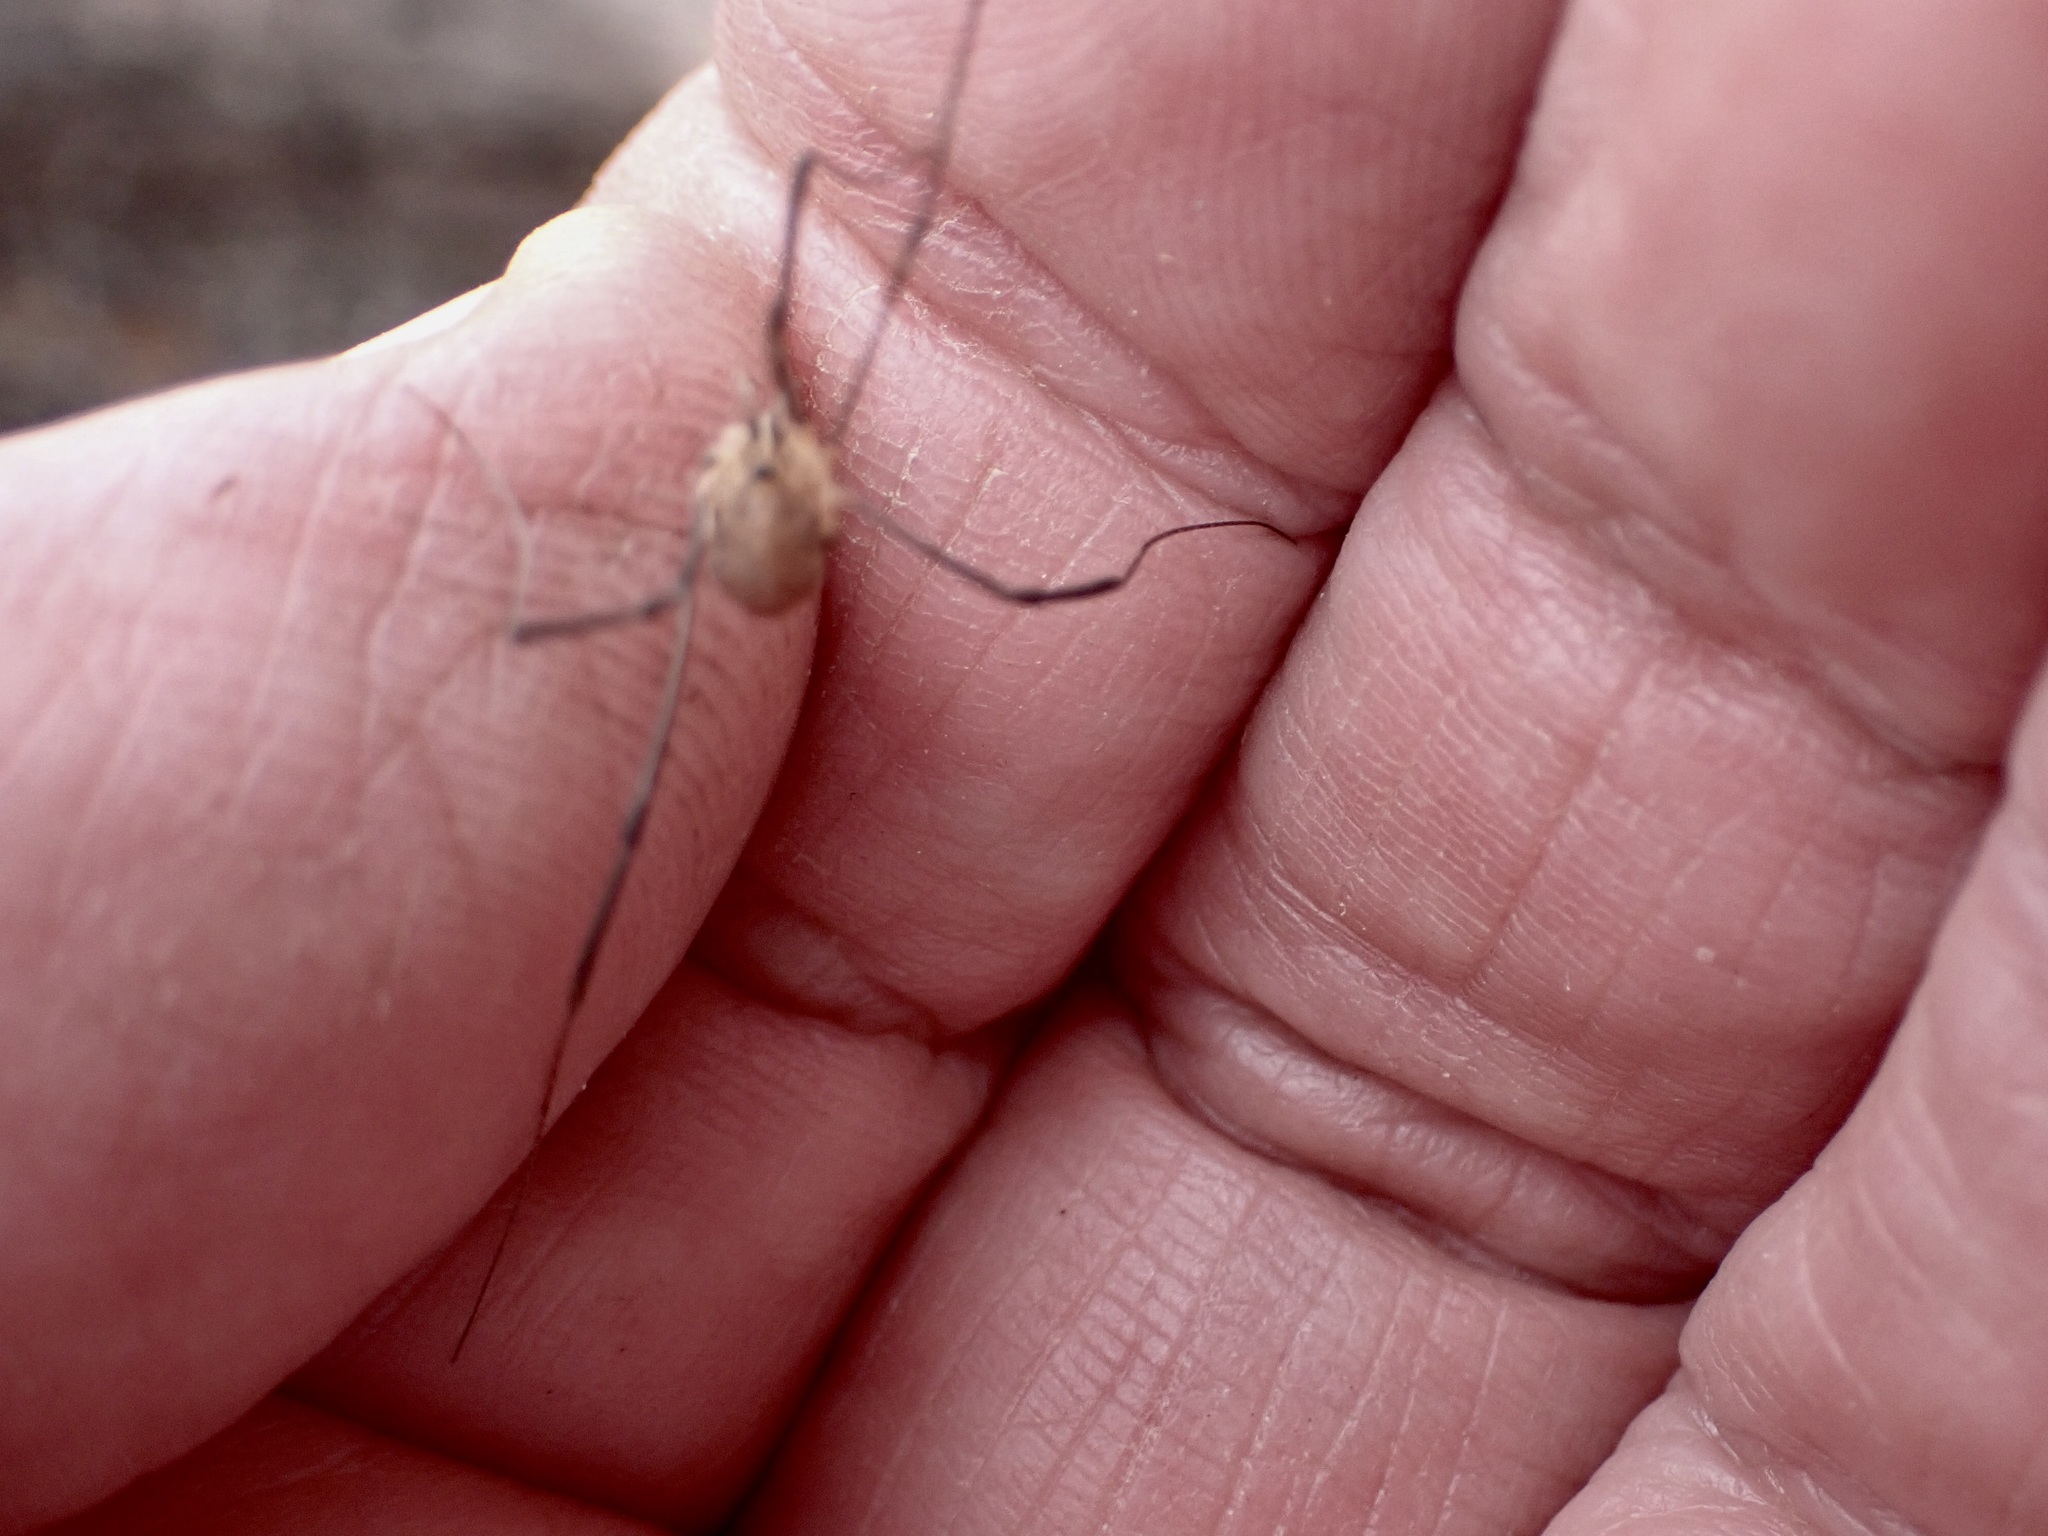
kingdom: Animalia
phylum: Arthropoda
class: Arachnida
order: Opiliones
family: Phalangiidae
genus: Phalangium
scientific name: Phalangium opilio
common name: Daddy longleg
